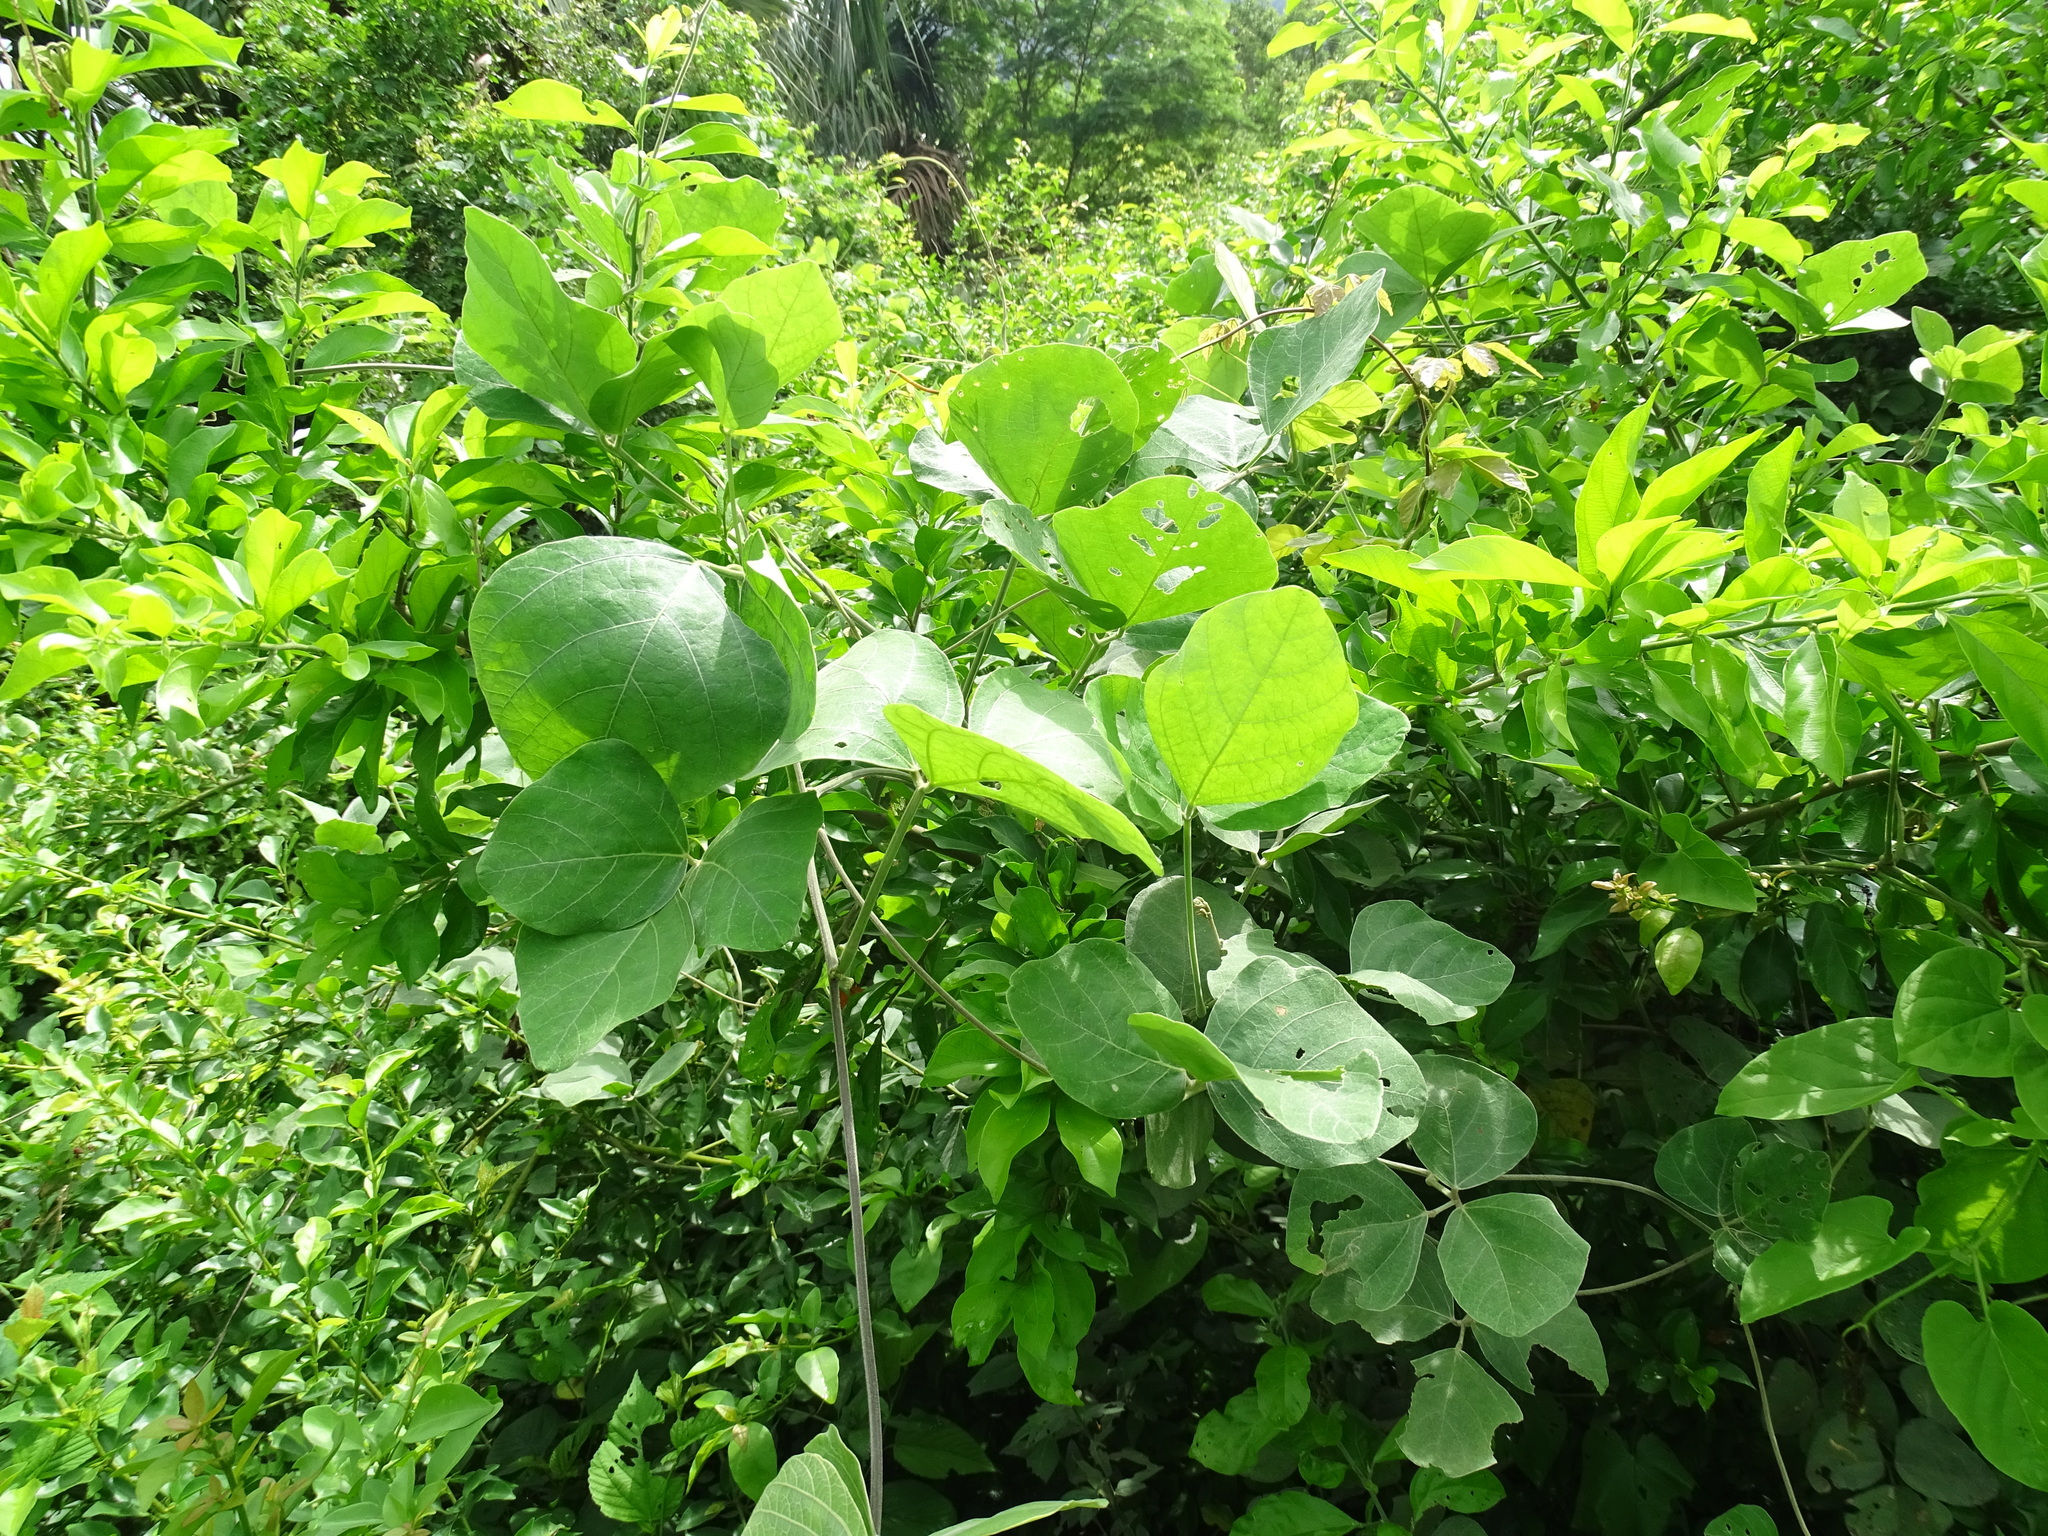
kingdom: Plantae
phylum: Tracheophyta
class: Magnoliopsida
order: Fabales
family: Fabaceae
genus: Mucuna
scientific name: Mucuna pruriens
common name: Cow-itch
